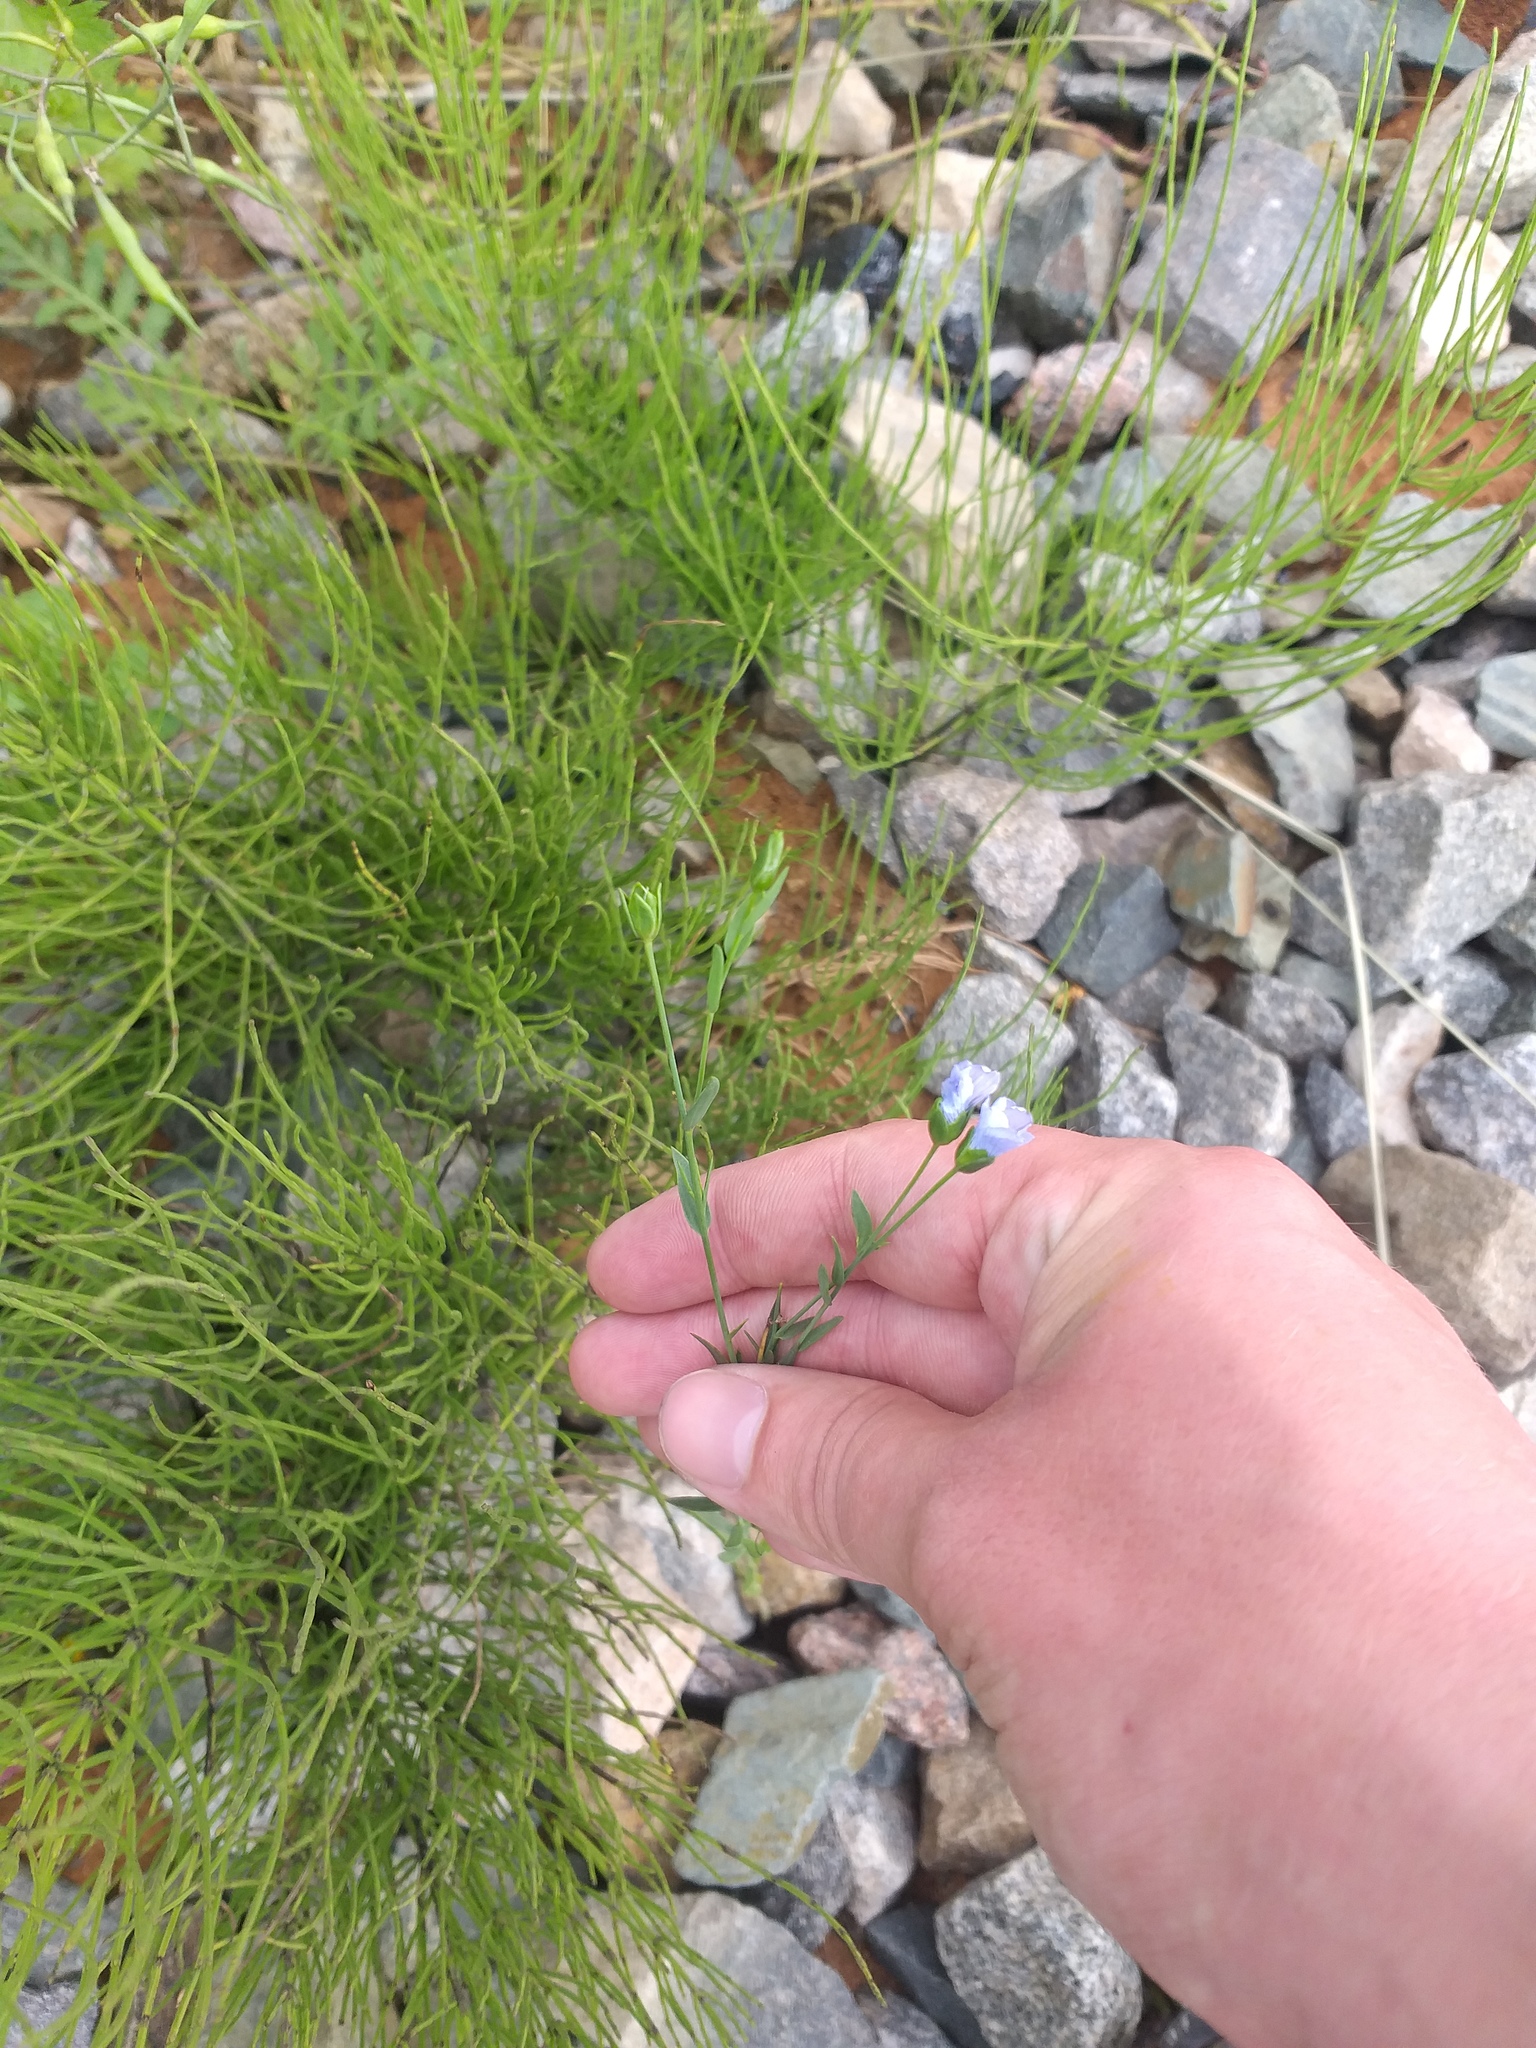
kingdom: Plantae
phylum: Tracheophyta
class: Magnoliopsida
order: Malpighiales
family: Linaceae
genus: Linum
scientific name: Linum usitatissimum
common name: Flax
